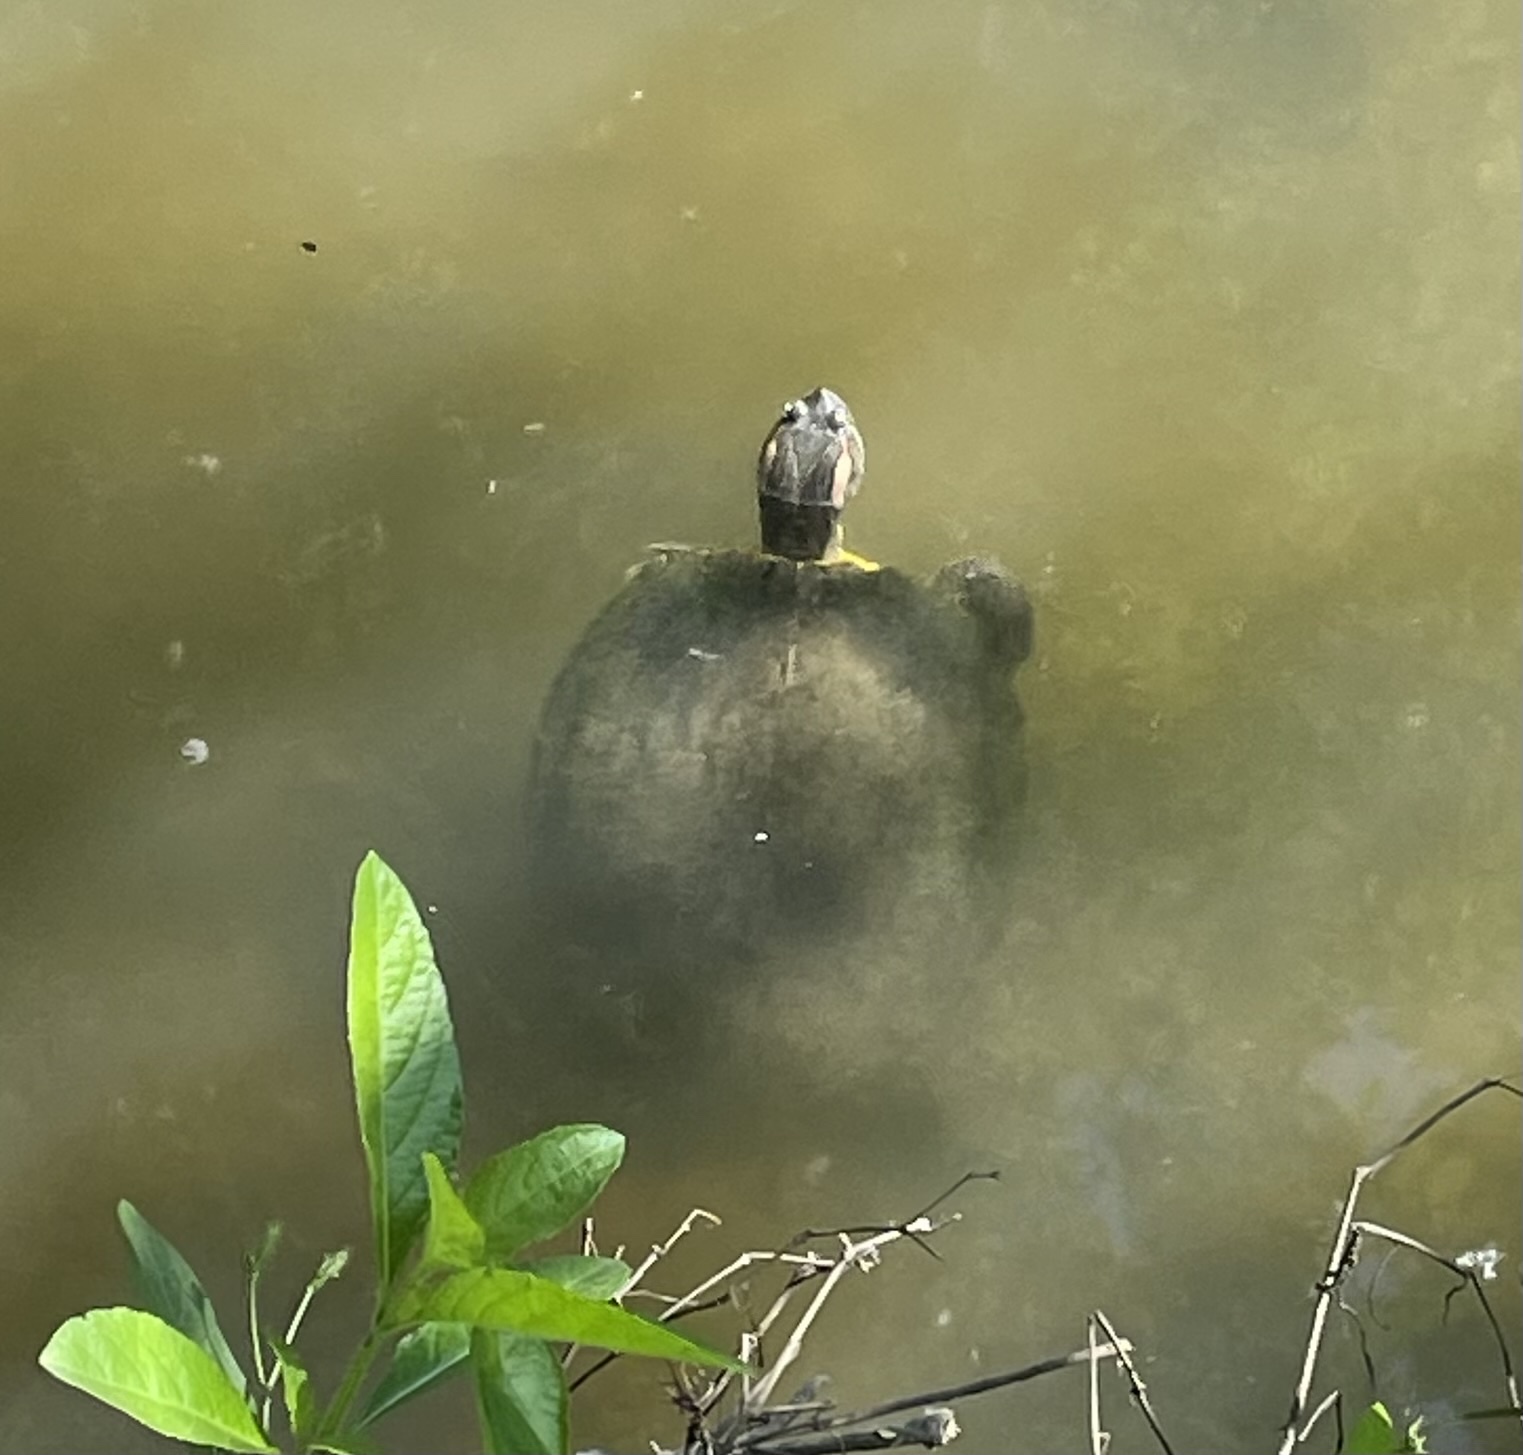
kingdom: Animalia
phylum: Chordata
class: Testudines
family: Emydidae
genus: Trachemys
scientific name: Trachemys scripta
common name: Slider
